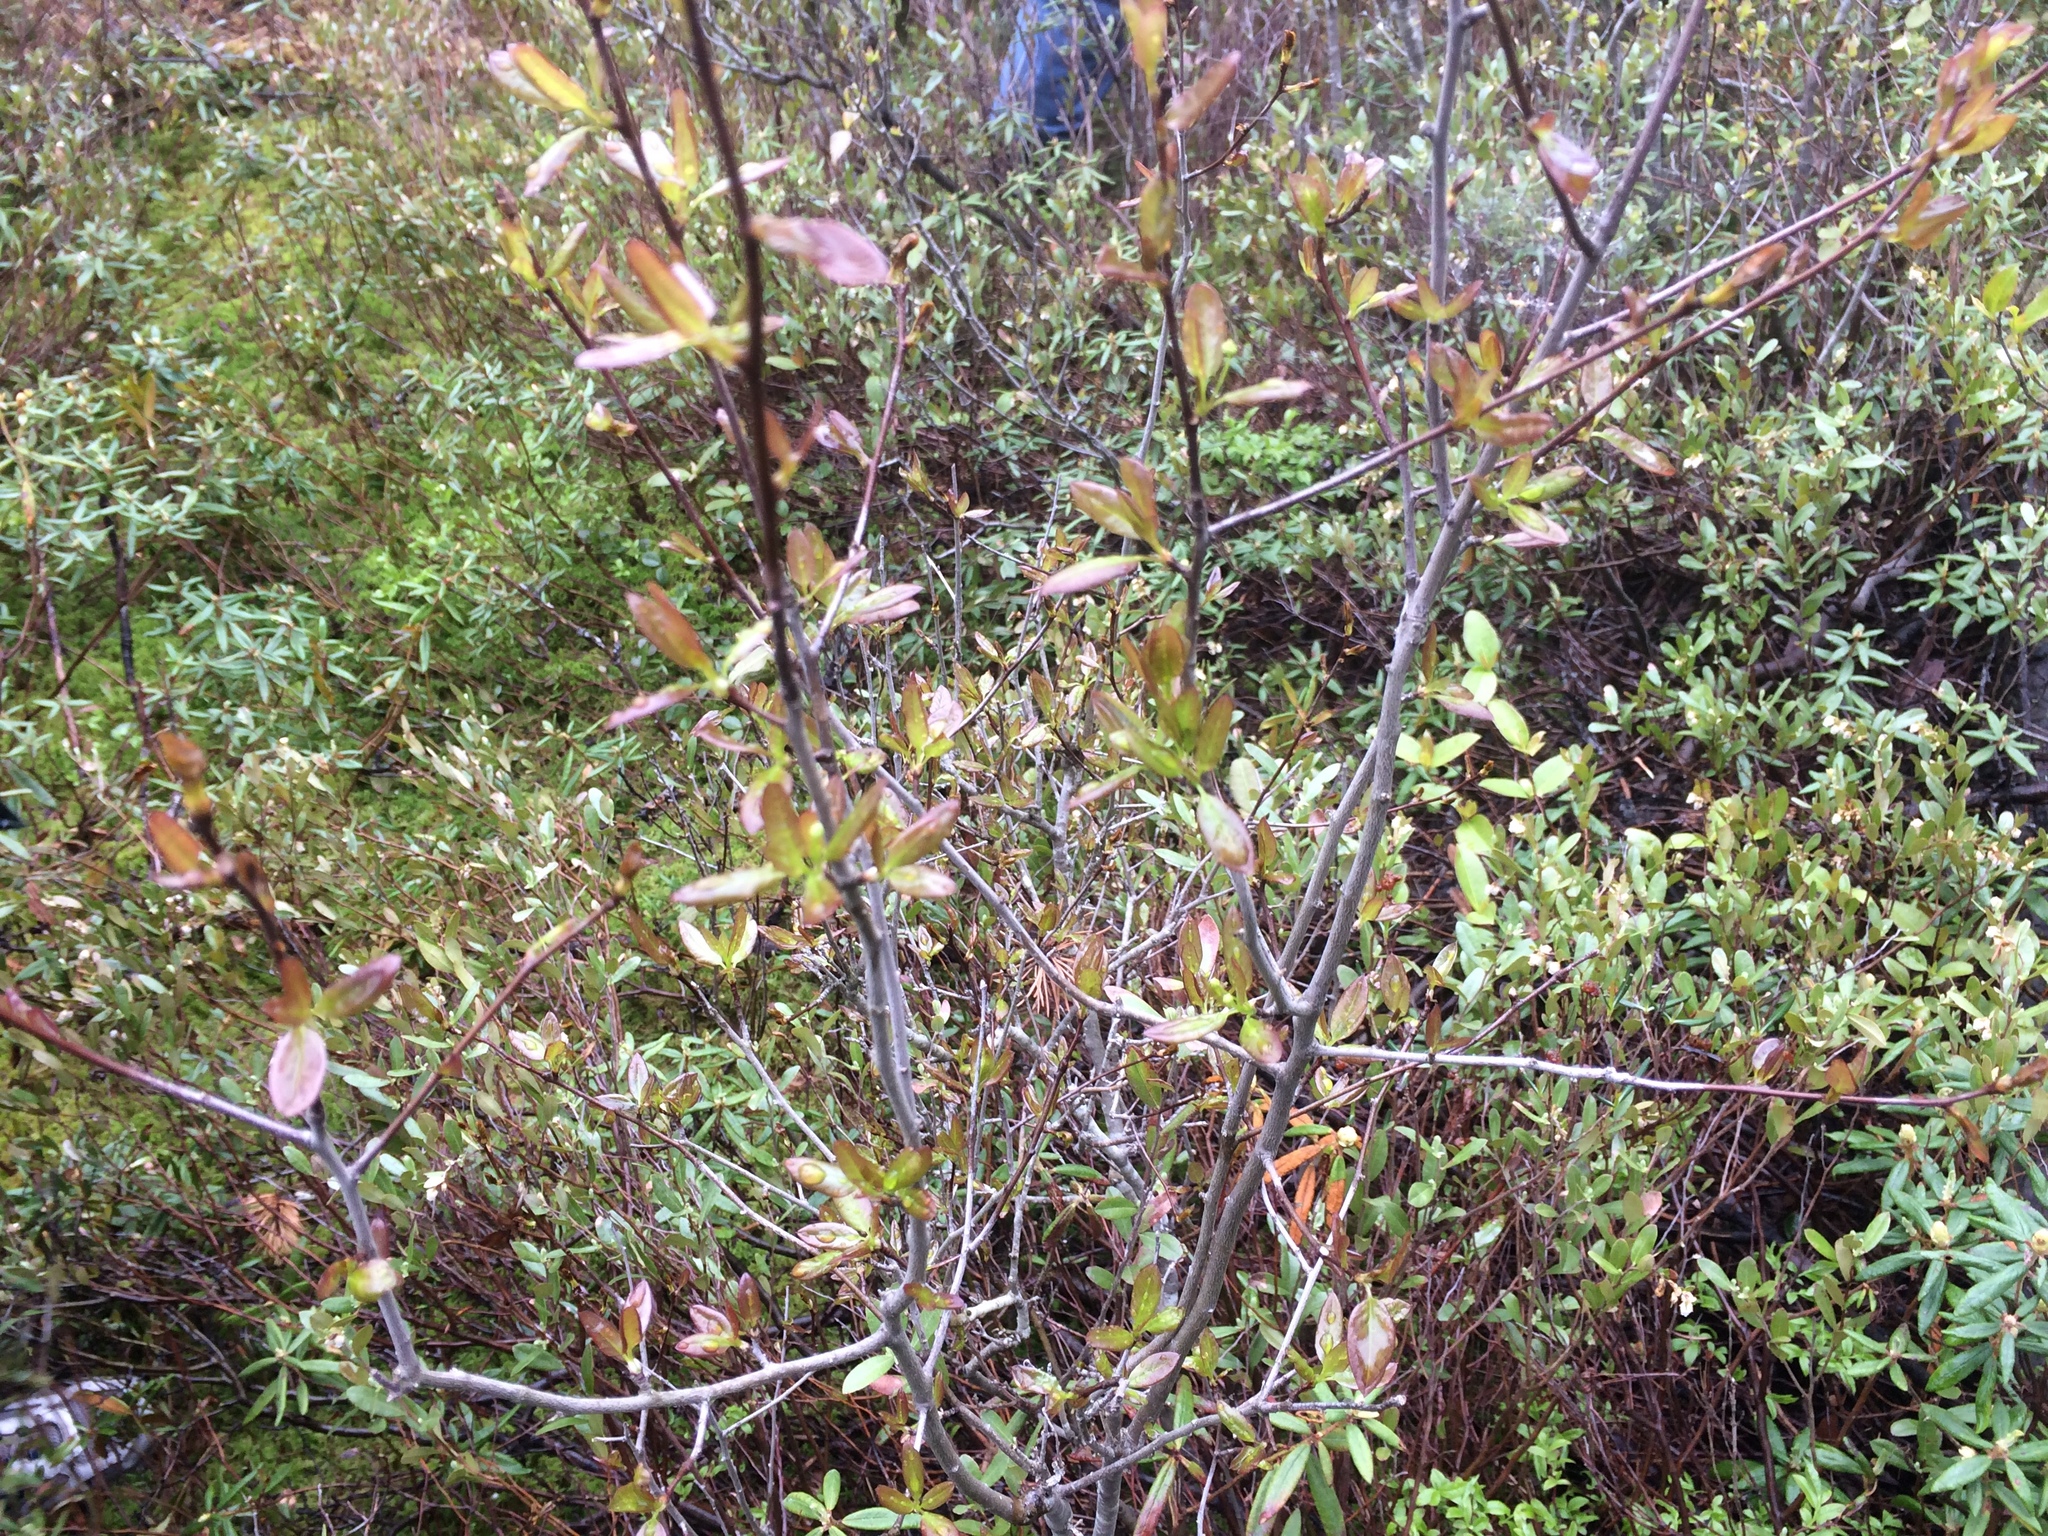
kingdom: Plantae
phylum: Tracheophyta
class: Magnoliopsida
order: Aquifoliales
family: Aquifoliaceae
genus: Ilex
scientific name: Ilex mucronata
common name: Catberry
